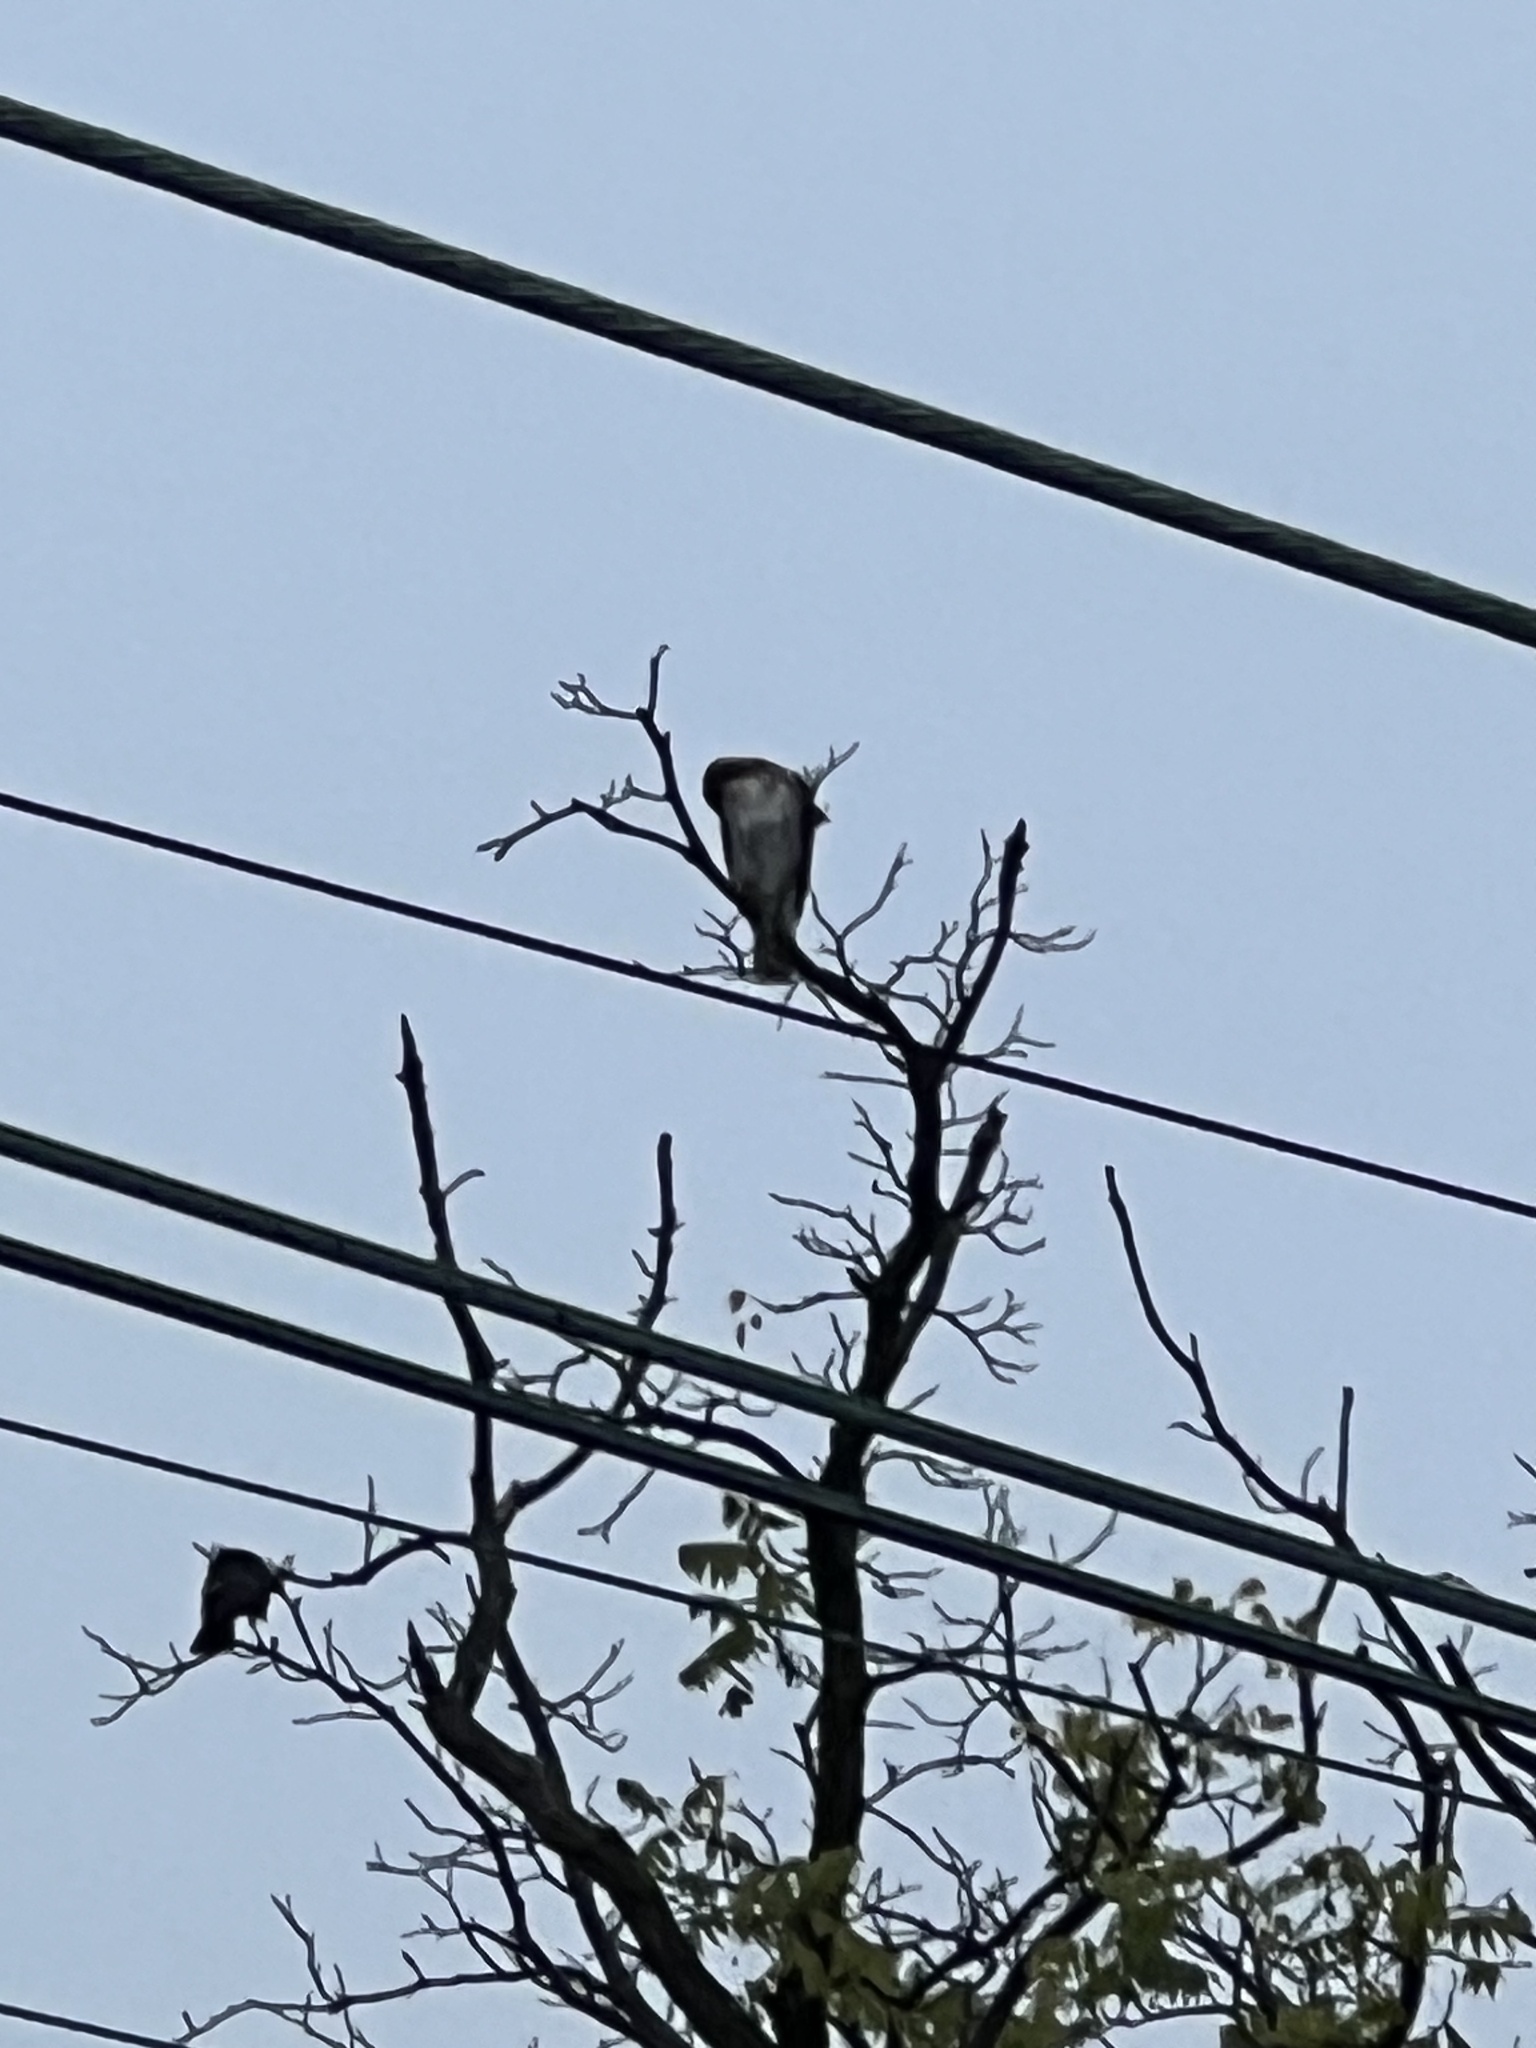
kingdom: Animalia
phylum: Chordata
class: Aves
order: Accipitriformes
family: Accipitridae
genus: Buteo
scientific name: Buteo jamaicensis
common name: Red-tailed hawk
